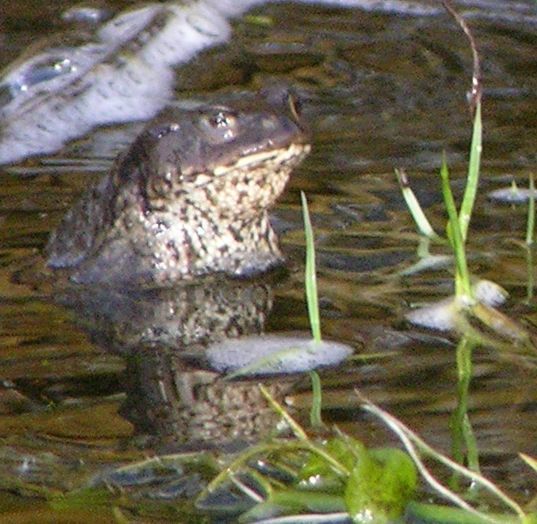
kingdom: Animalia
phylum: Chordata
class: Amphibia
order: Anura
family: Bufonidae
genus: Bufo
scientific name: Bufo bufo
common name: Common toad
